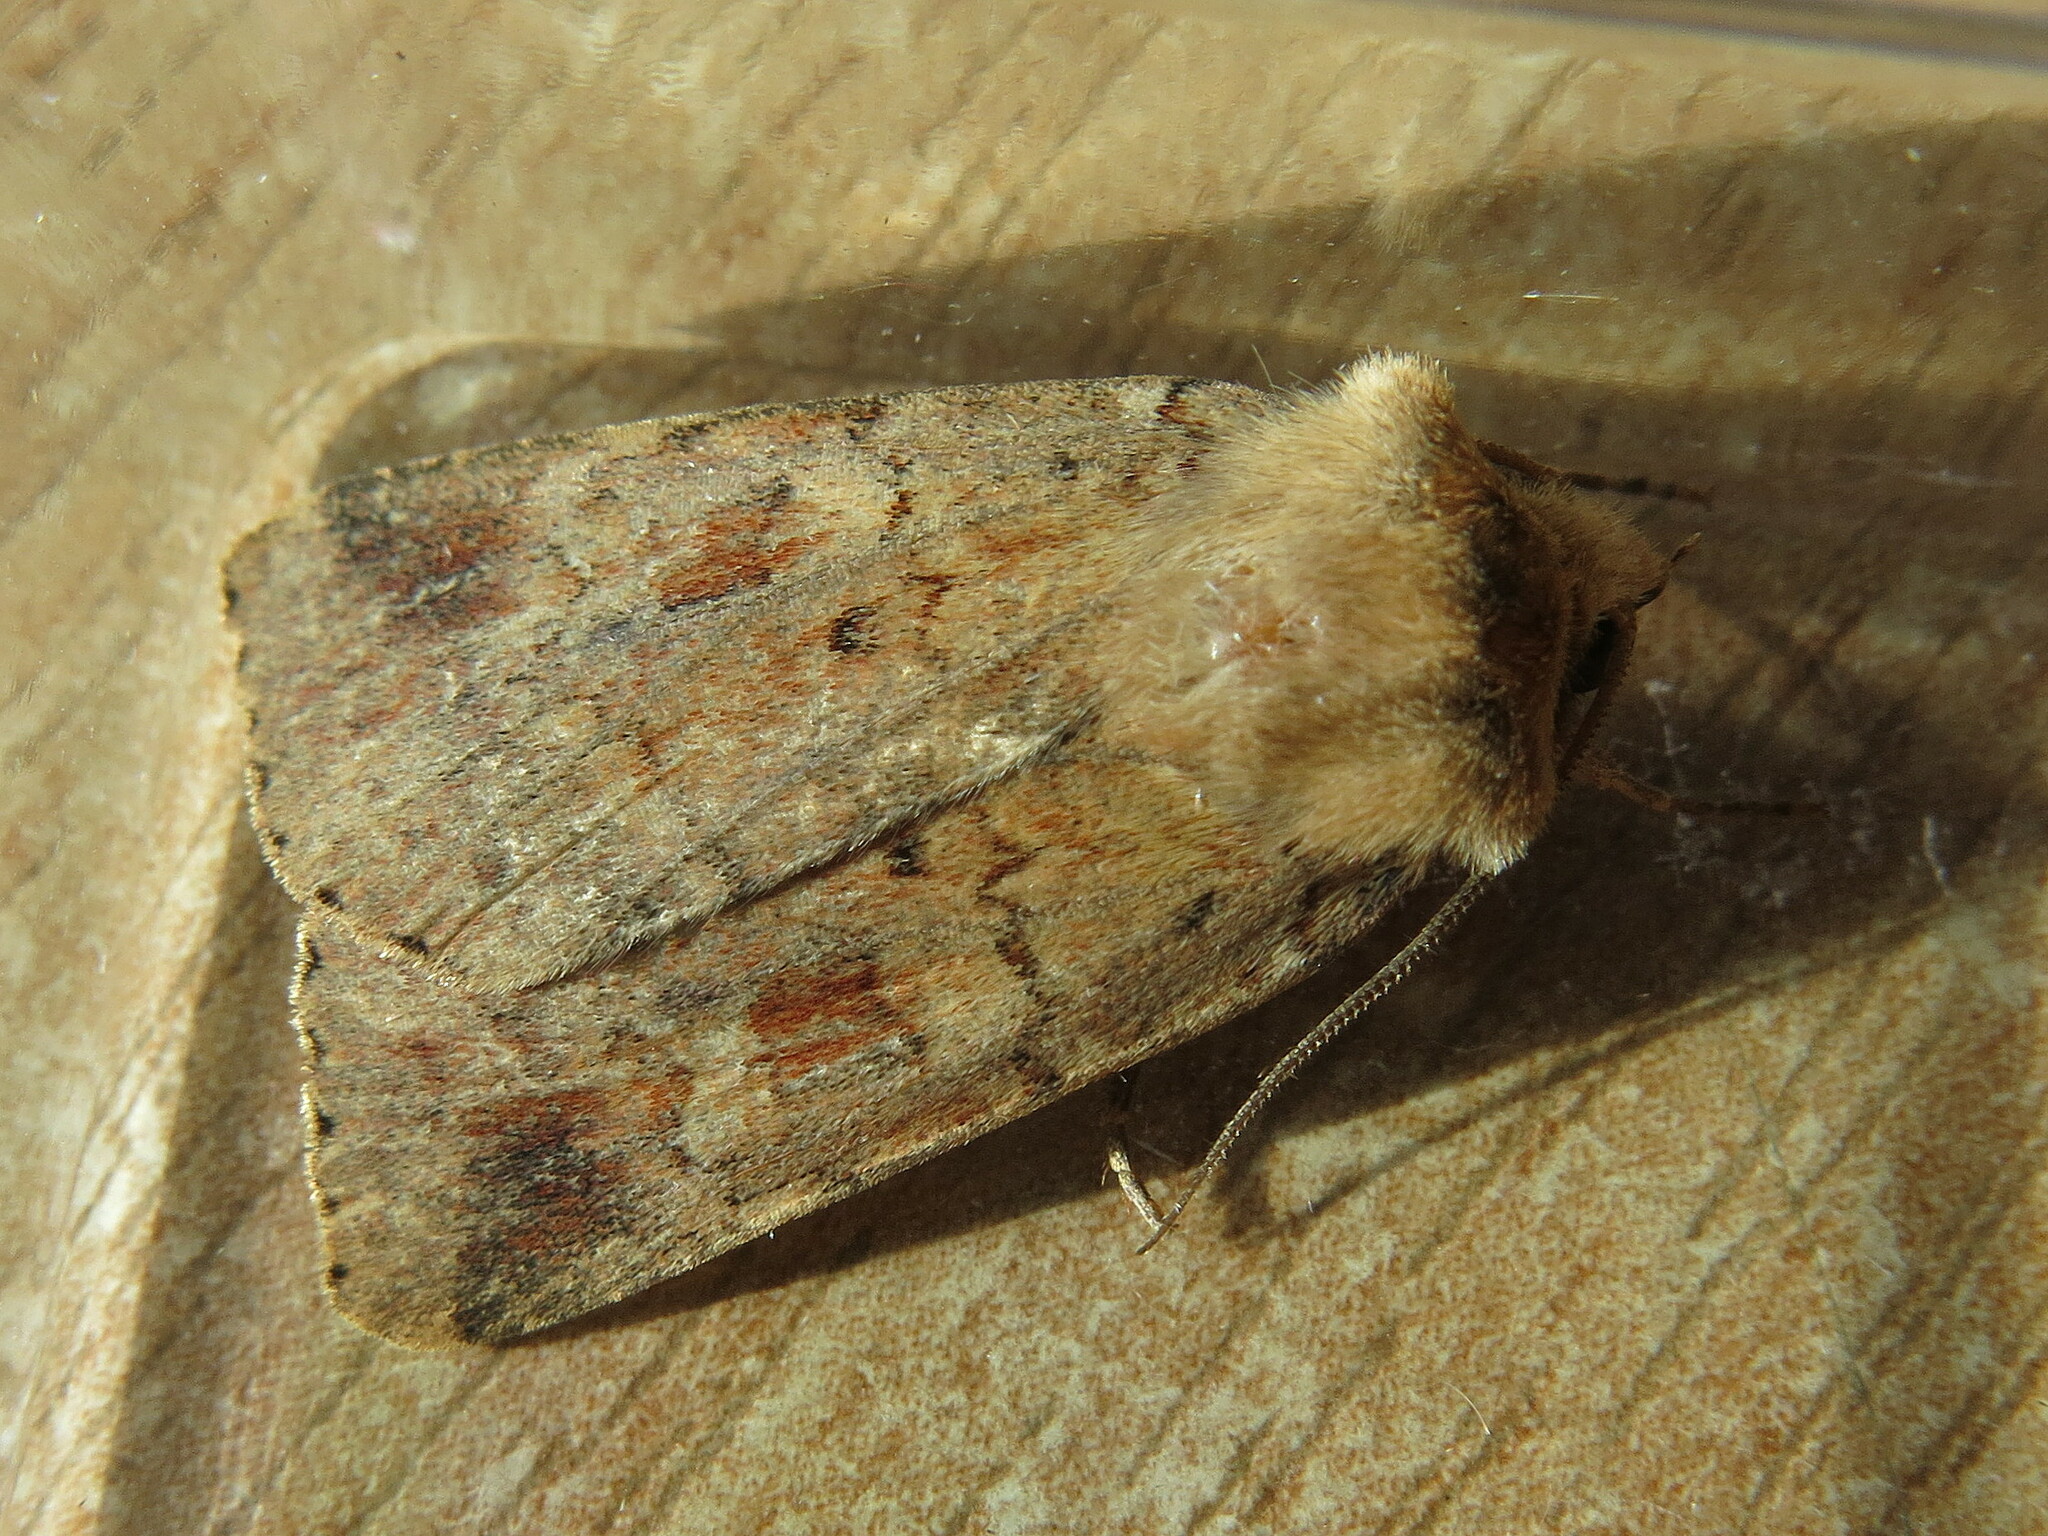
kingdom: Animalia
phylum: Arthropoda
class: Insecta
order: Lepidoptera
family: Noctuidae
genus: Diarsia
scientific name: Diarsia mendica
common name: Ingrailed clay
